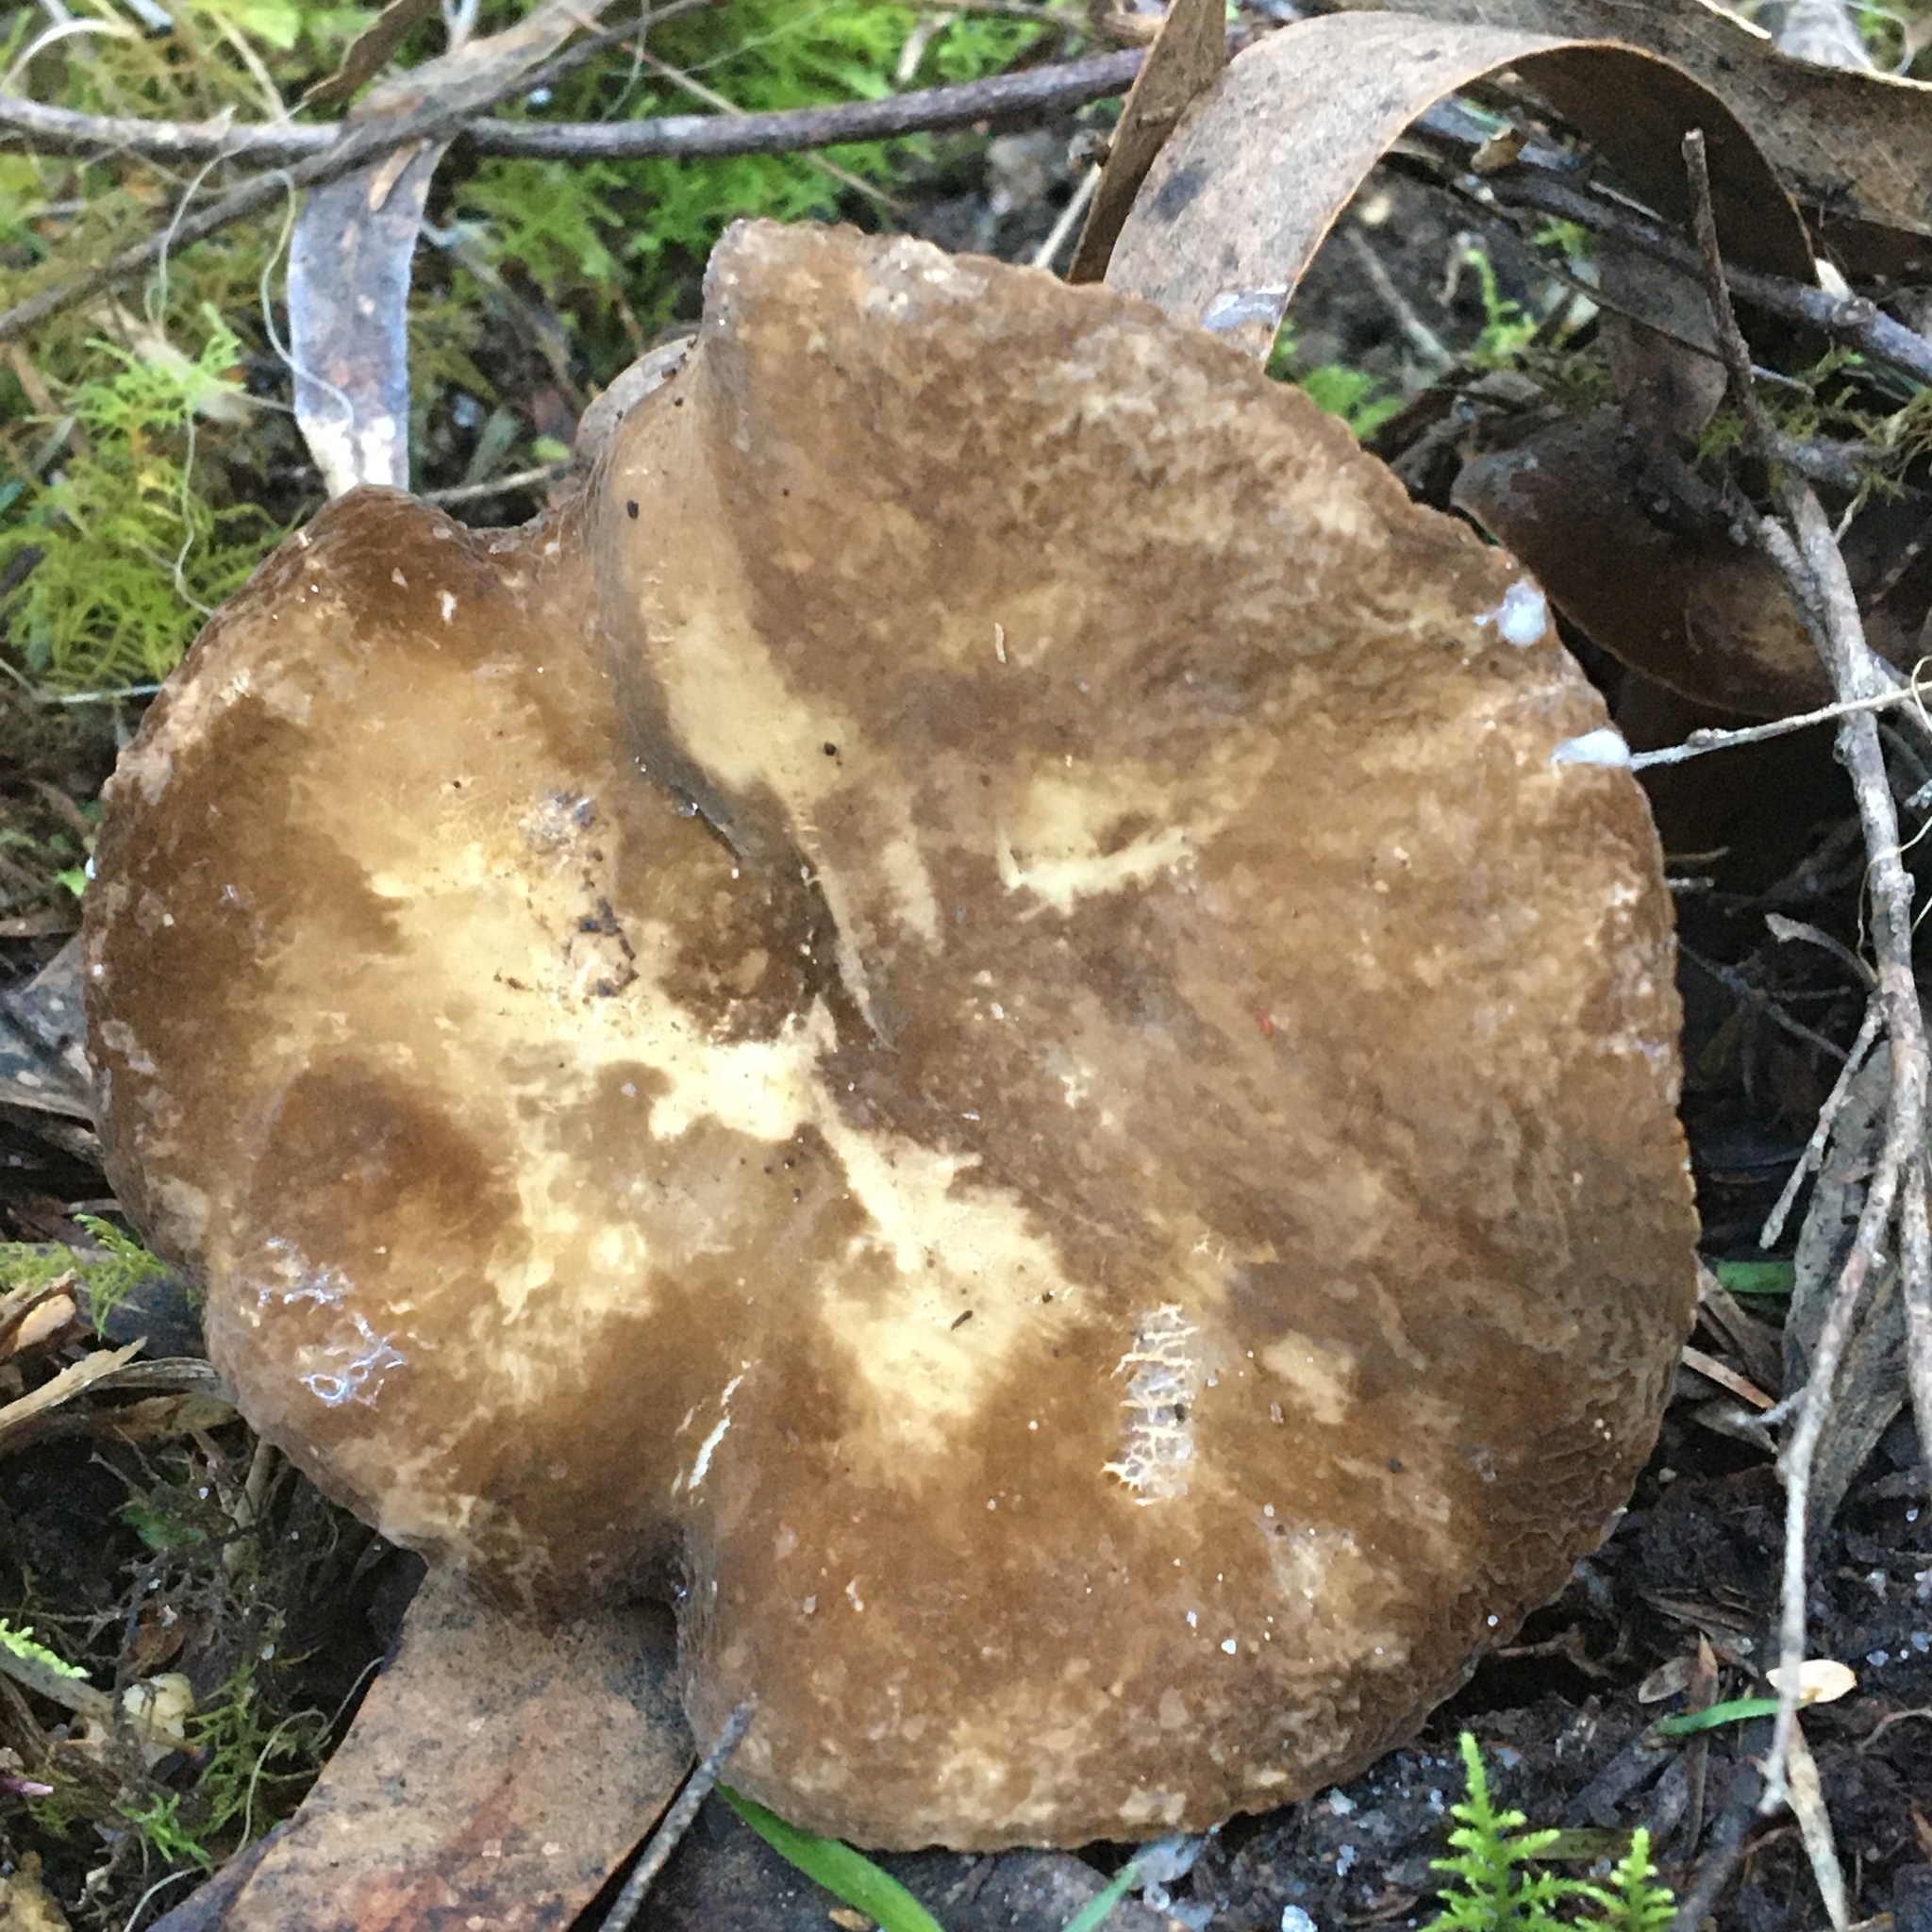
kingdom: Fungi
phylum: Basidiomycota
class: Agaricomycetes
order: Russulales
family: Russulaceae
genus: Lactifluus
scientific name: Lactifluus wirrabara
